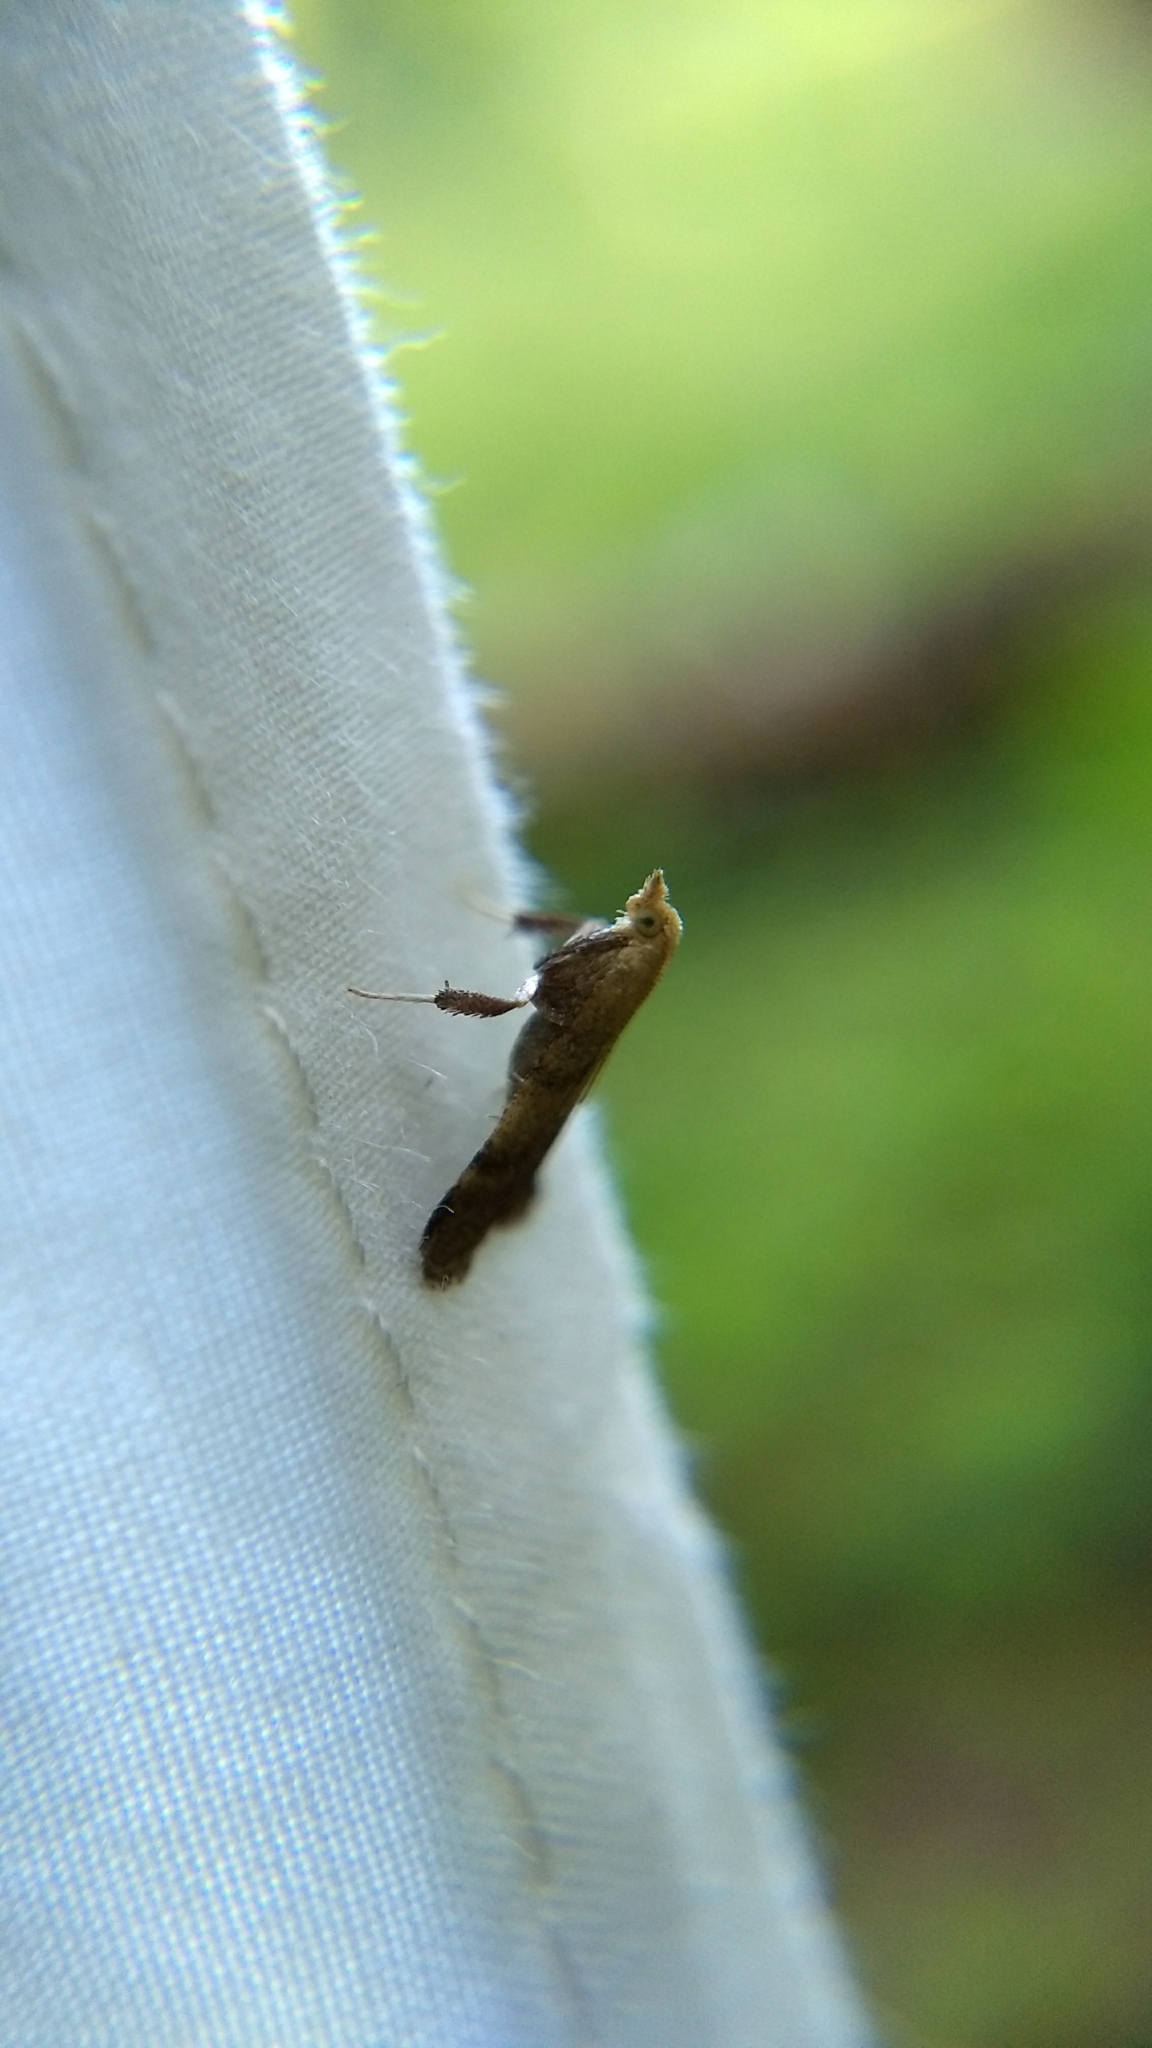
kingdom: Animalia
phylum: Arthropoda
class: Insecta
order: Lepidoptera
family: Pyralidae
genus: Condylolomia
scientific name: Condylolomia participialis
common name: Drab condylolomia moth
